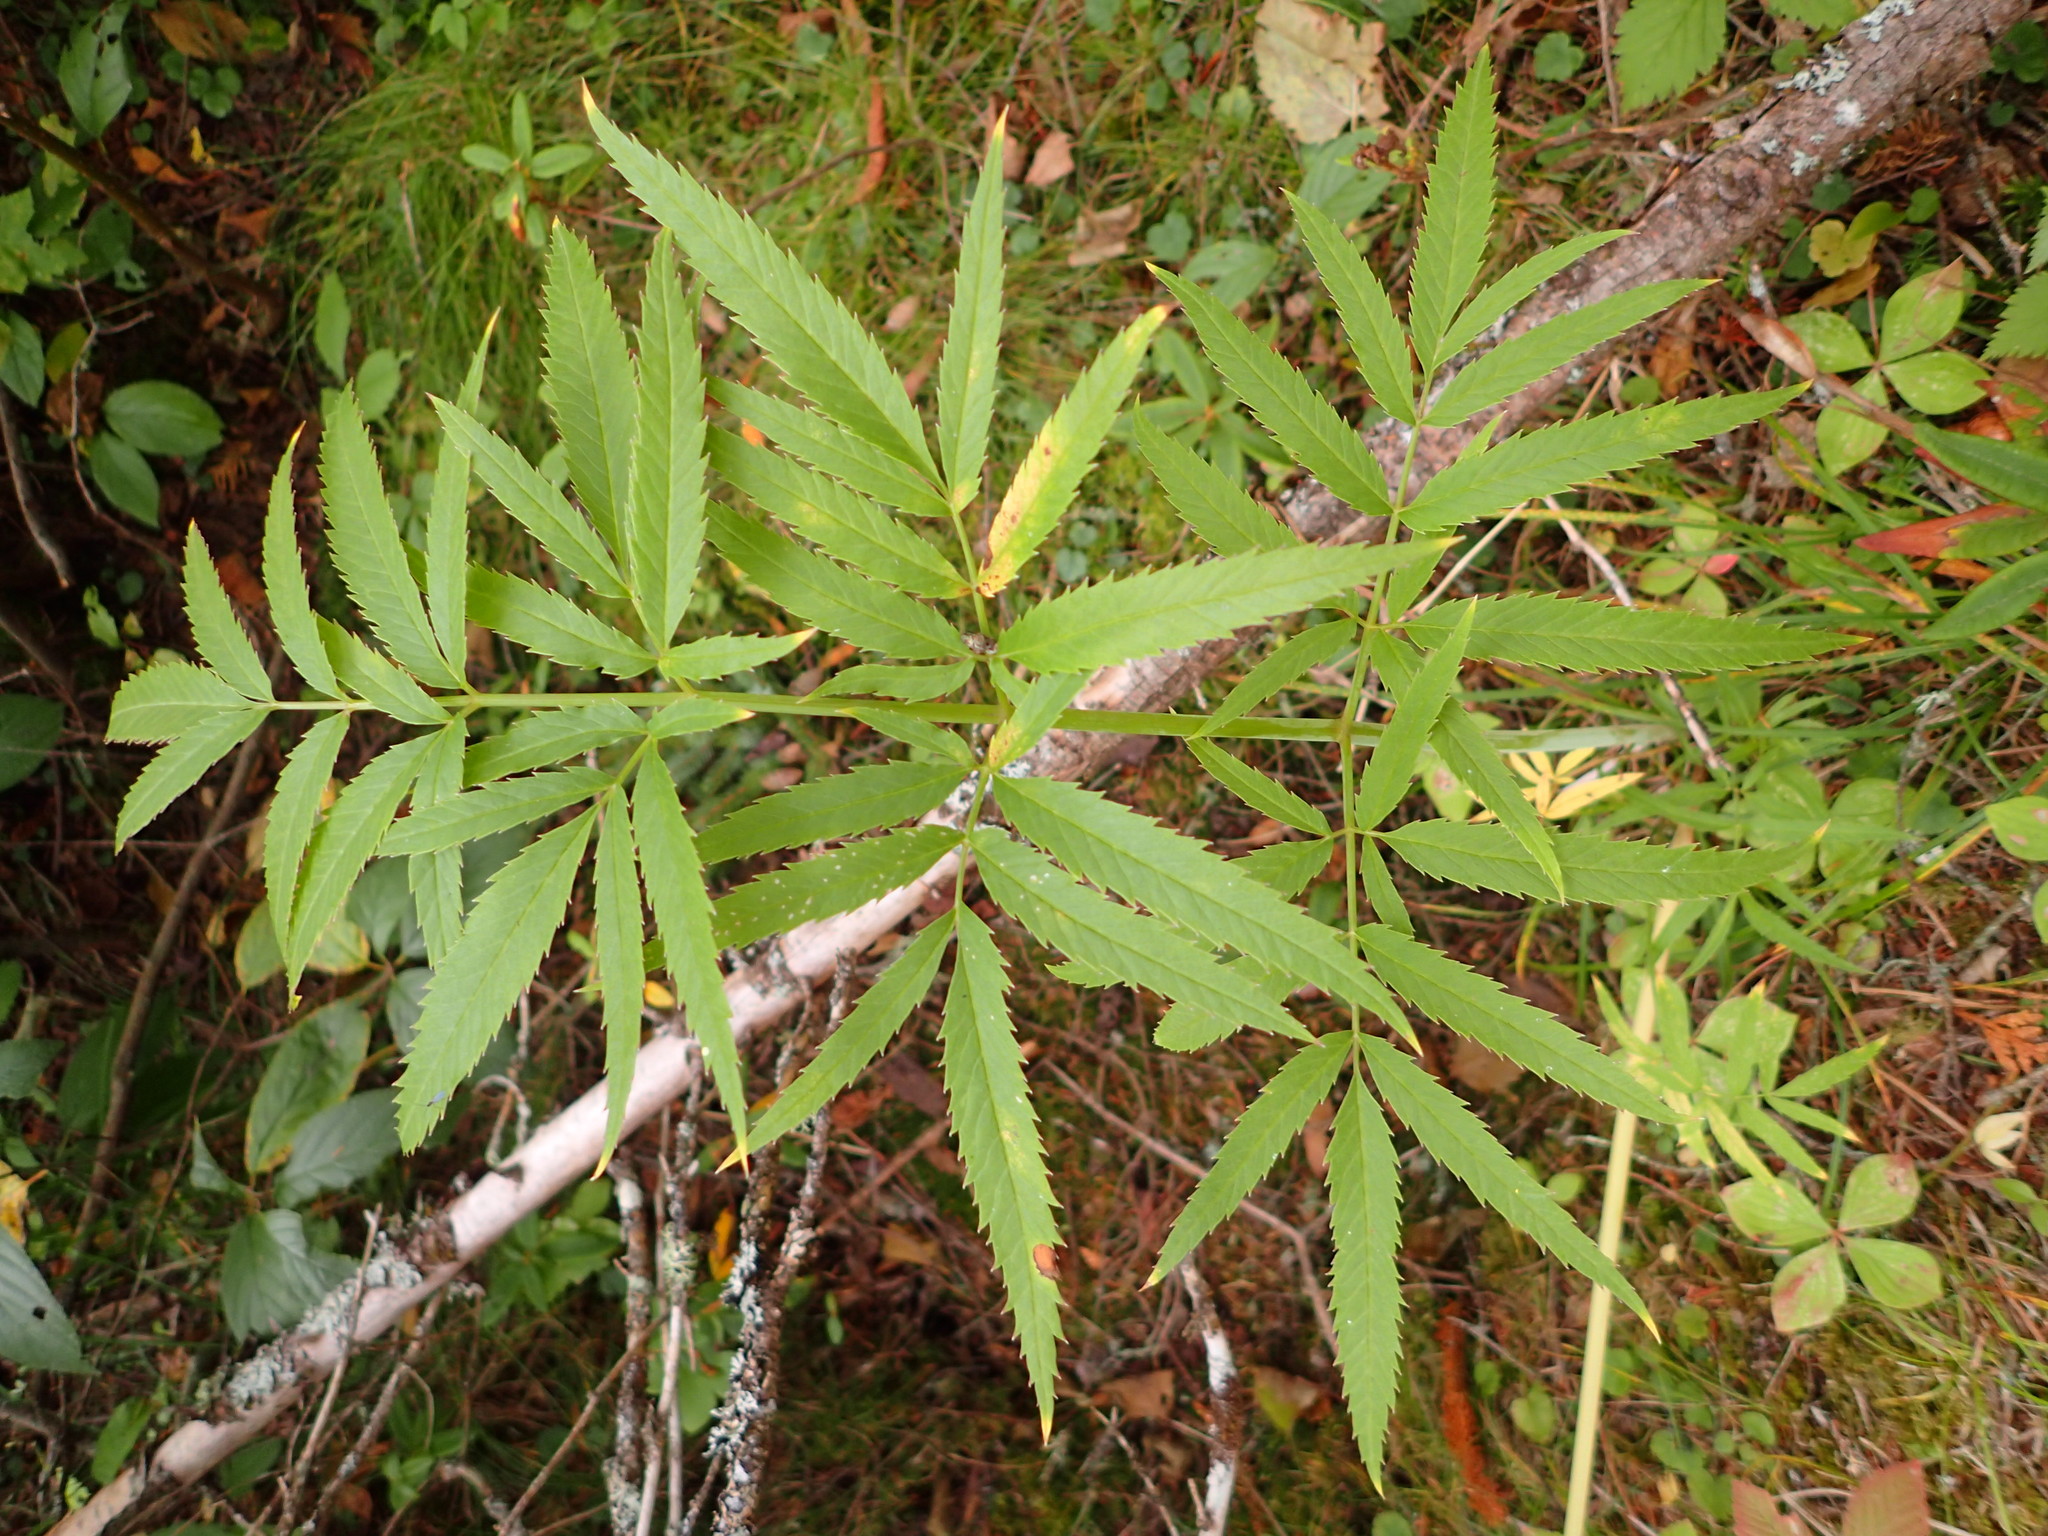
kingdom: Plantae
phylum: Tracheophyta
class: Magnoliopsida
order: Apiales
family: Apiaceae
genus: Cicuta
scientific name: Cicuta maculata
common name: Spotted cowbane
